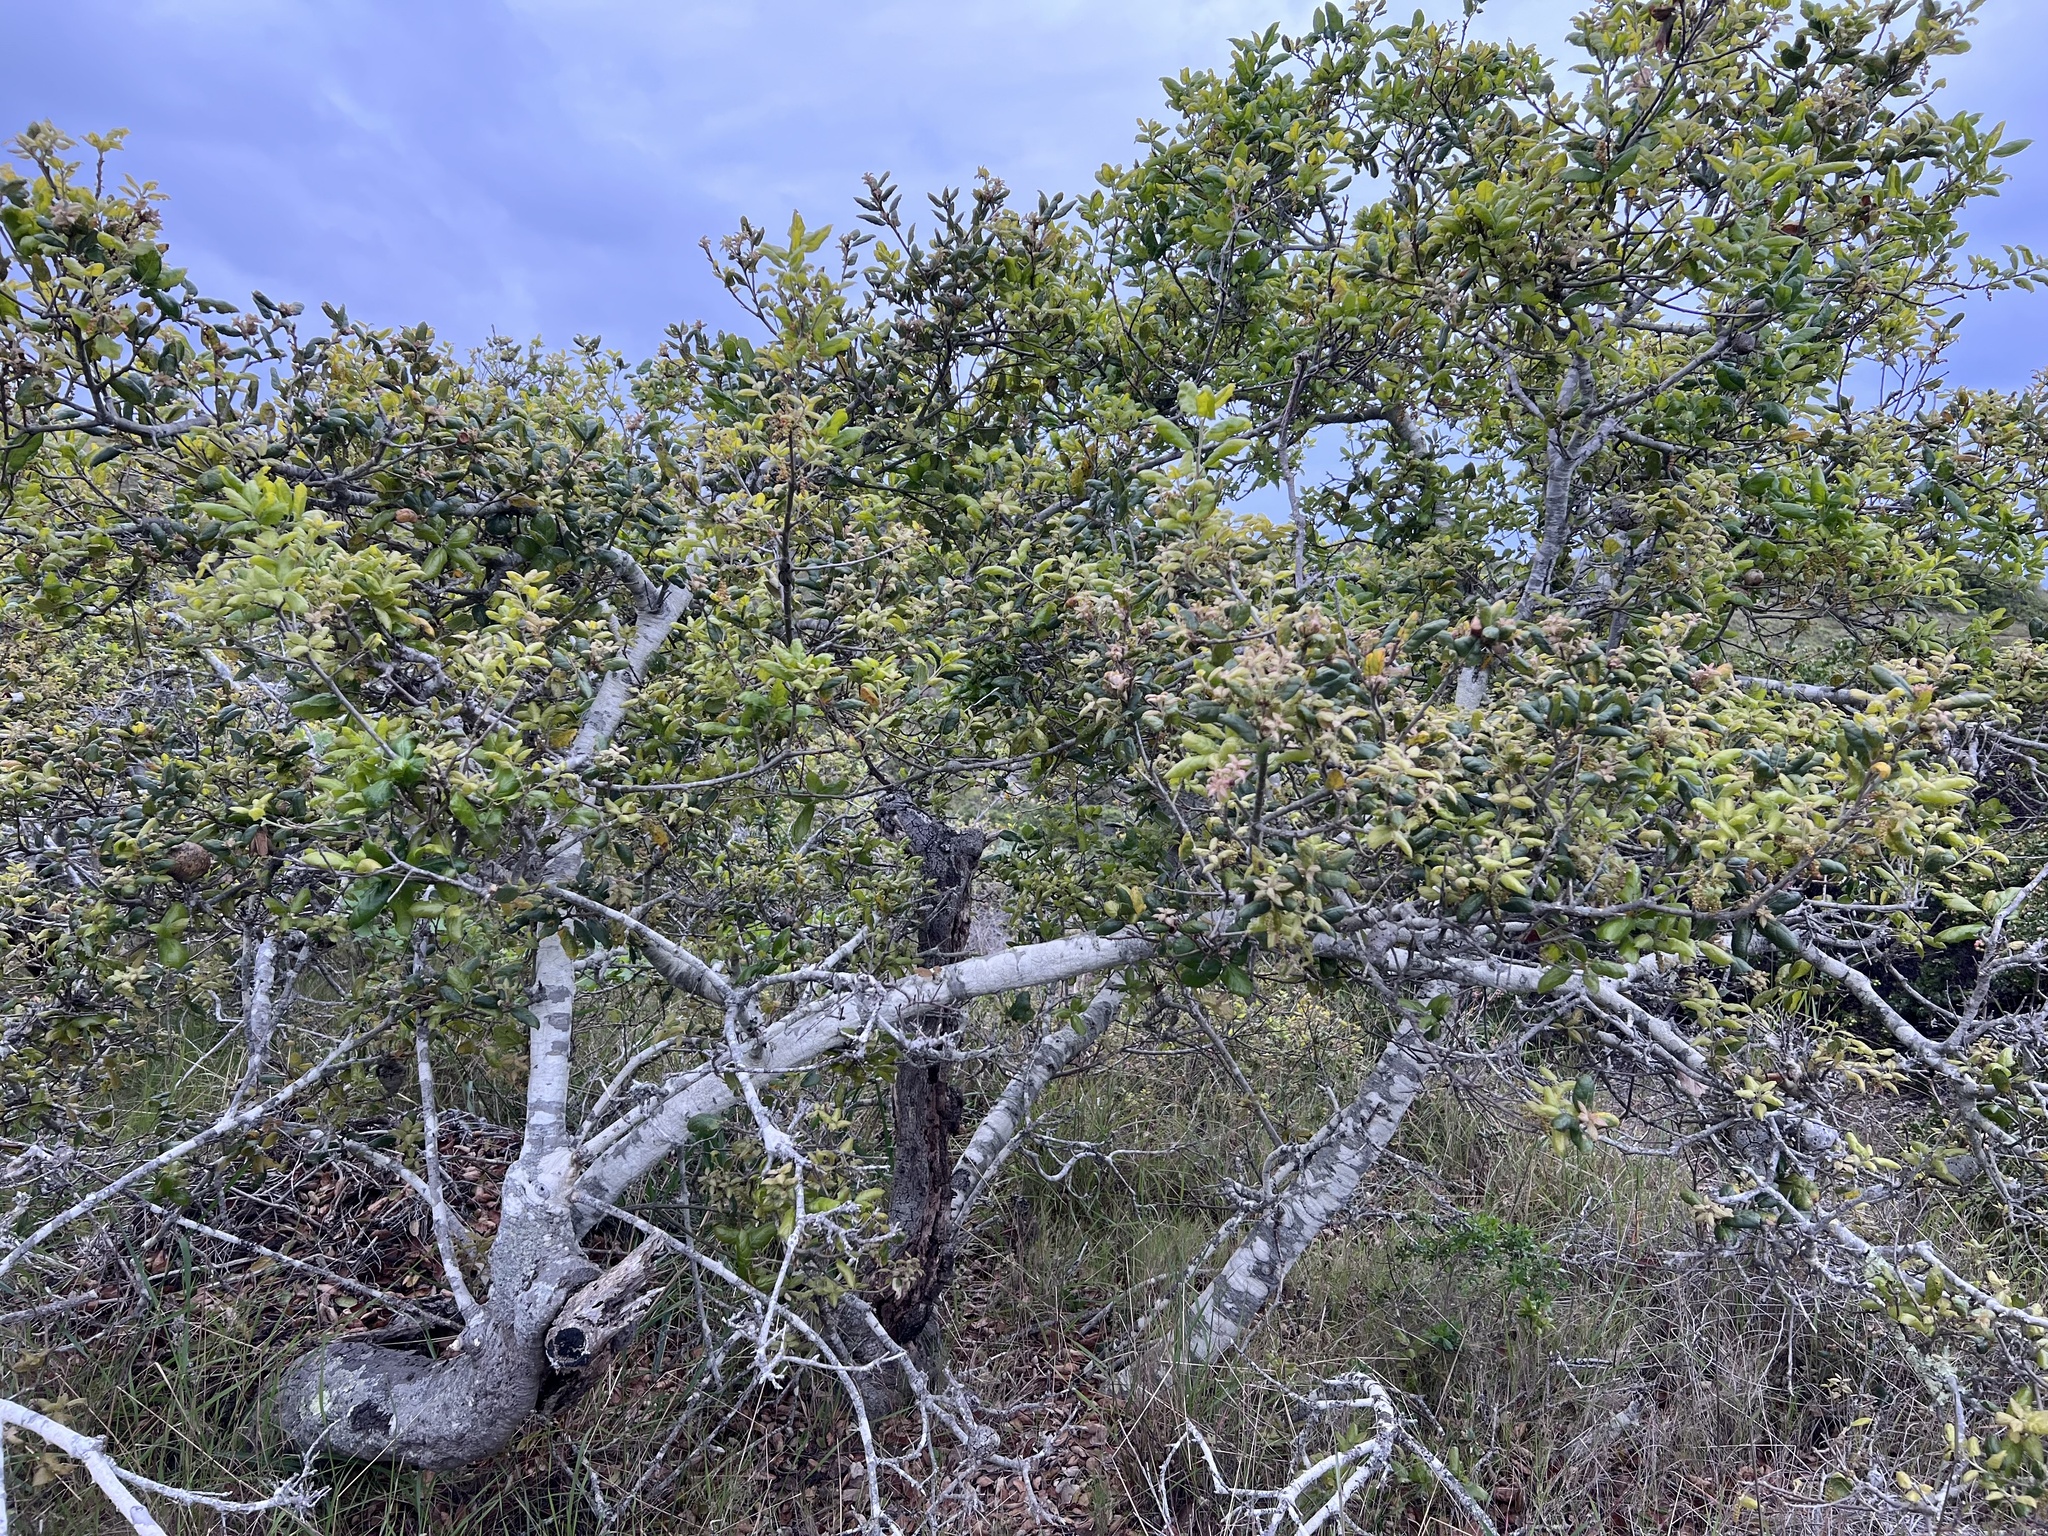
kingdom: Plantae
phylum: Tracheophyta
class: Magnoliopsida
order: Fagales
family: Fagaceae
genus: Quercus
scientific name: Quercus agrifolia
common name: California live oak
